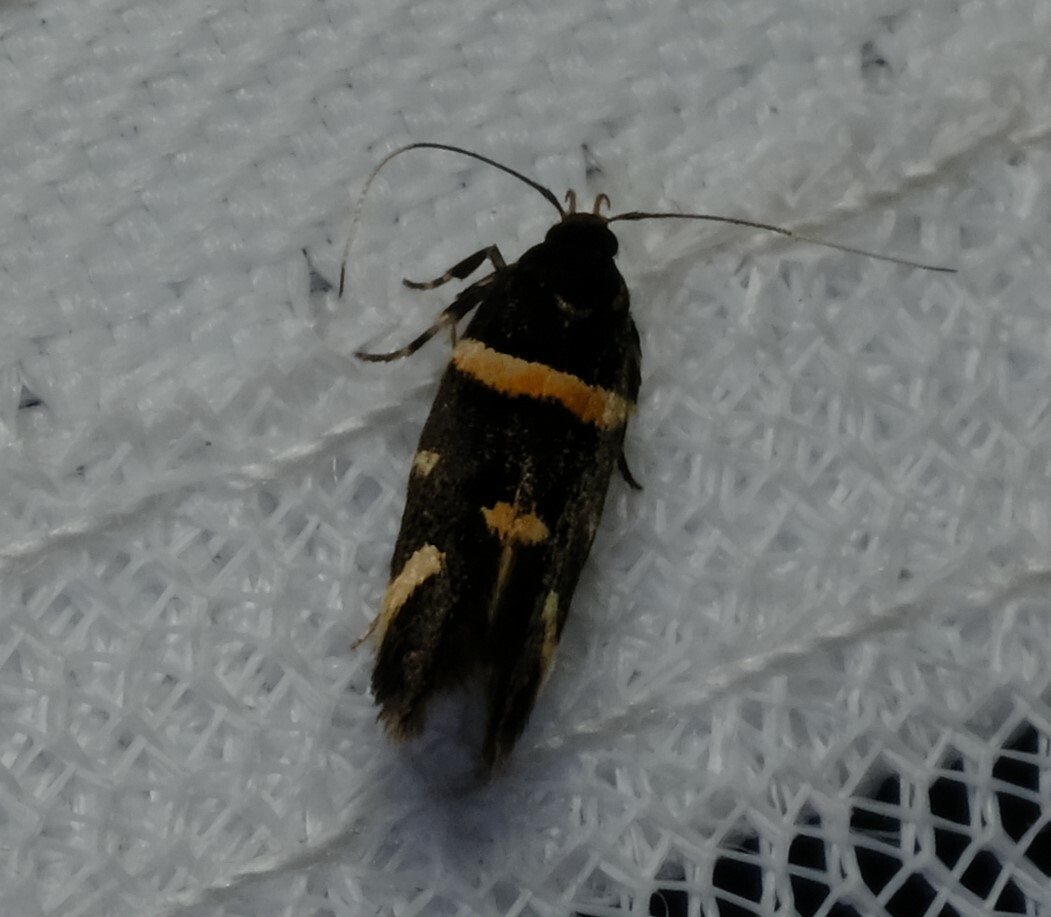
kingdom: Animalia
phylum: Arthropoda
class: Insecta
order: Lepidoptera
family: Cosmopterigidae
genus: Macrobathra
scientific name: Macrobathra alternatella
